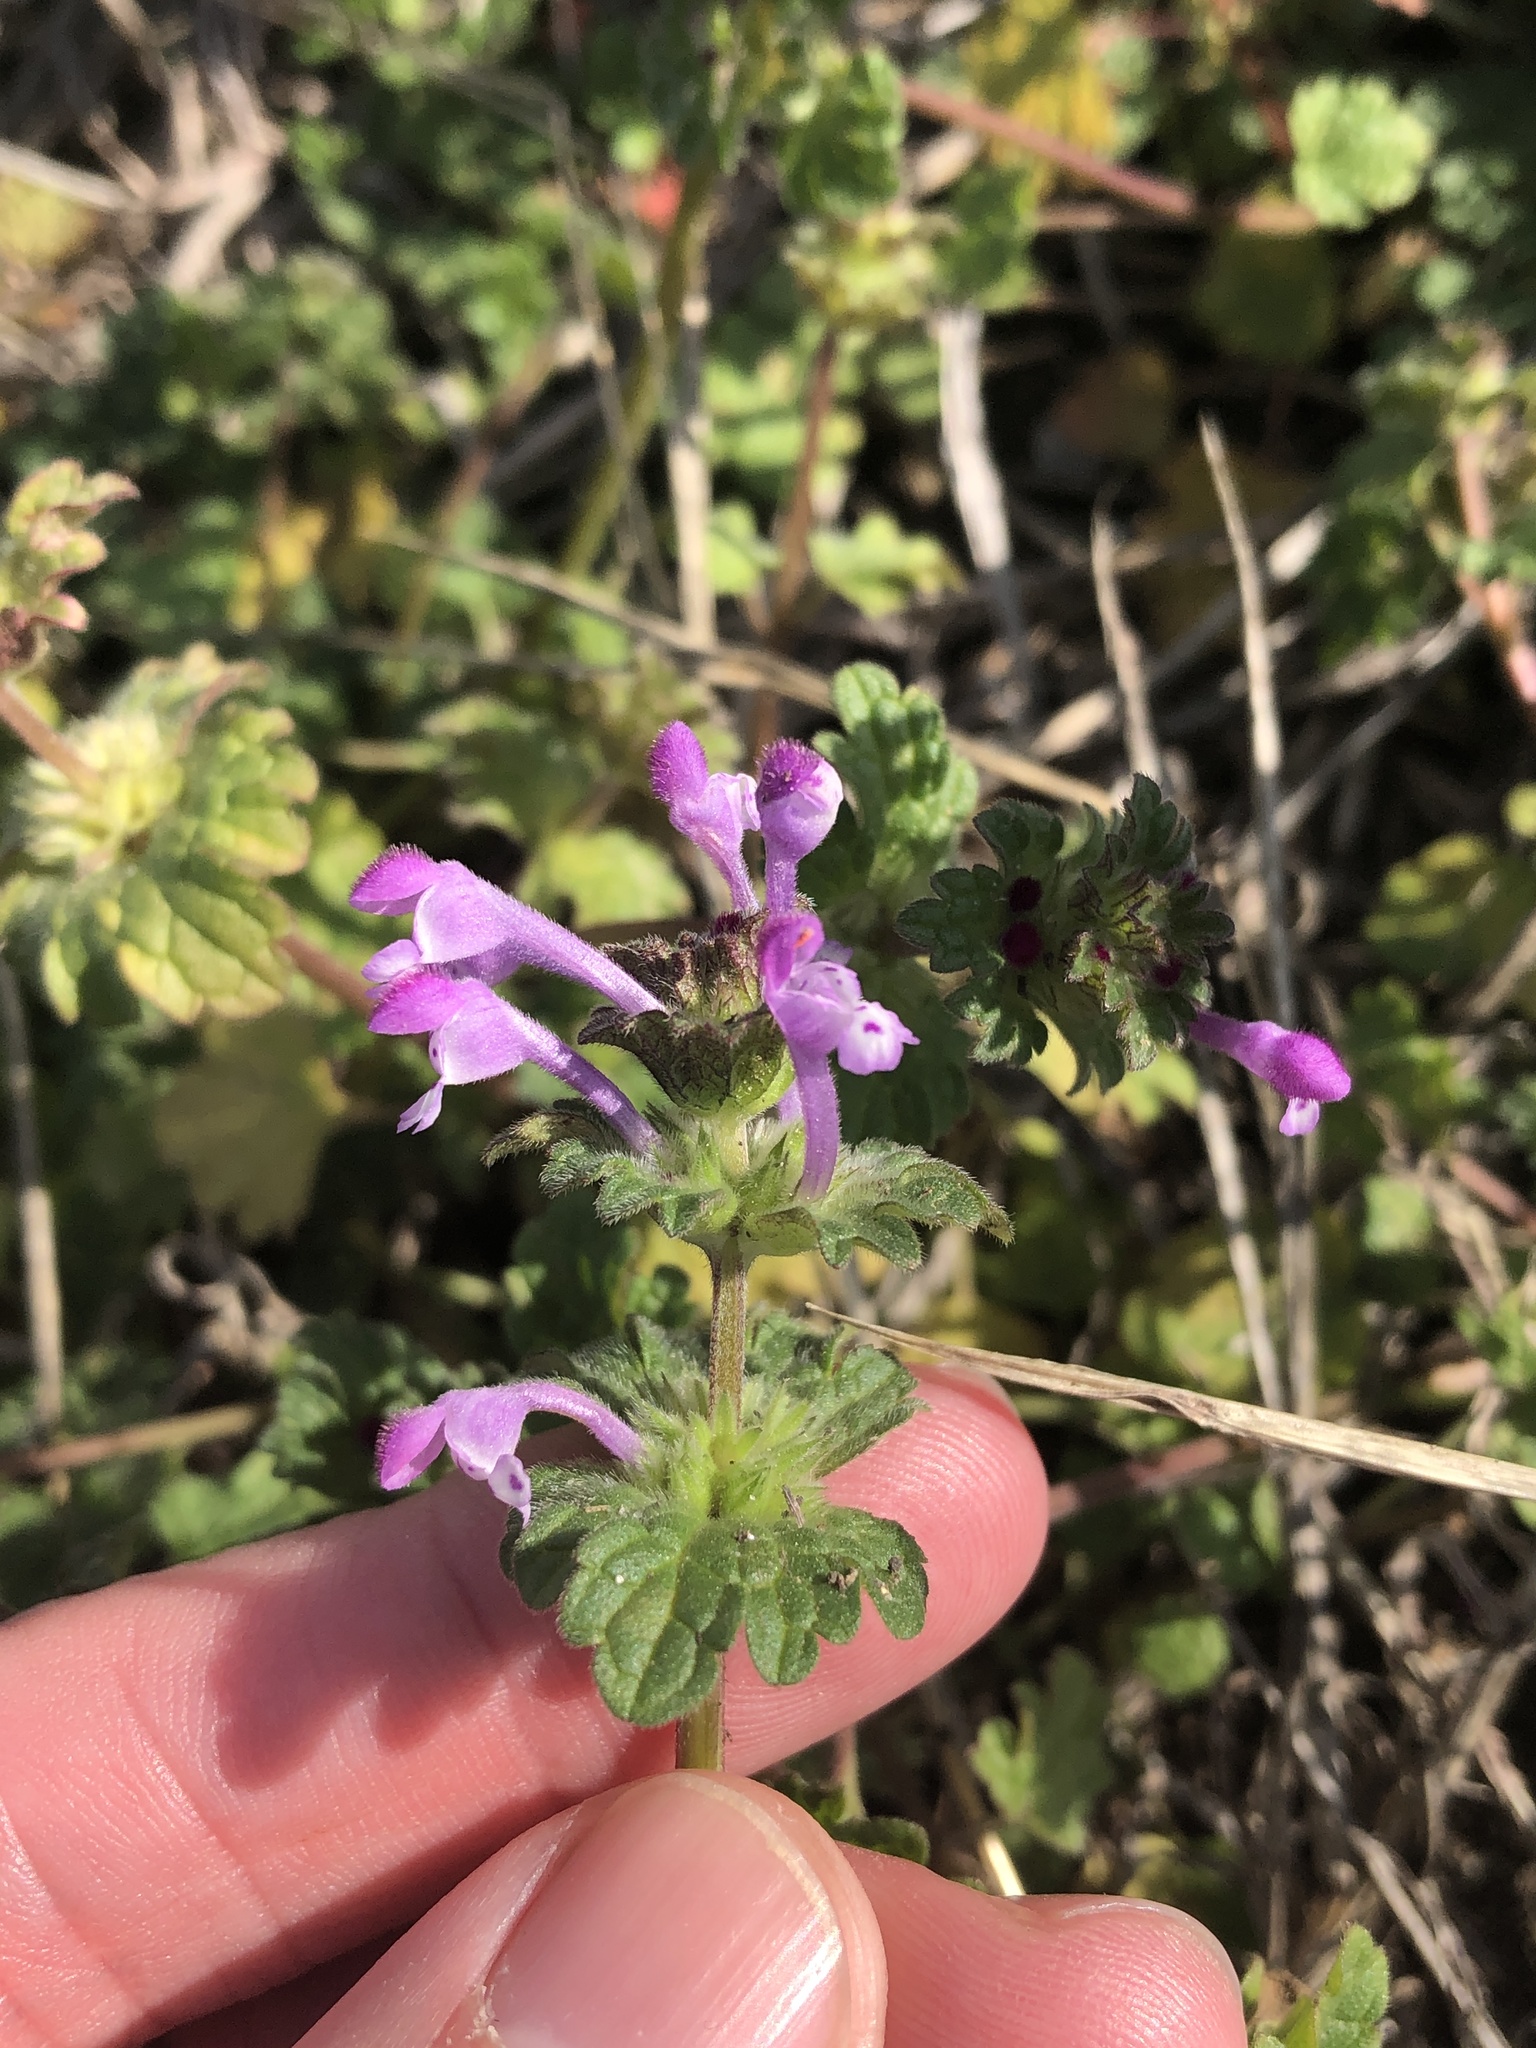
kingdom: Plantae
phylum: Tracheophyta
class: Magnoliopsida
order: Lamiales
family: Lamiaceae
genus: Lamium
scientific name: Lamium amplexicaule
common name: Henbit dead-nettle
